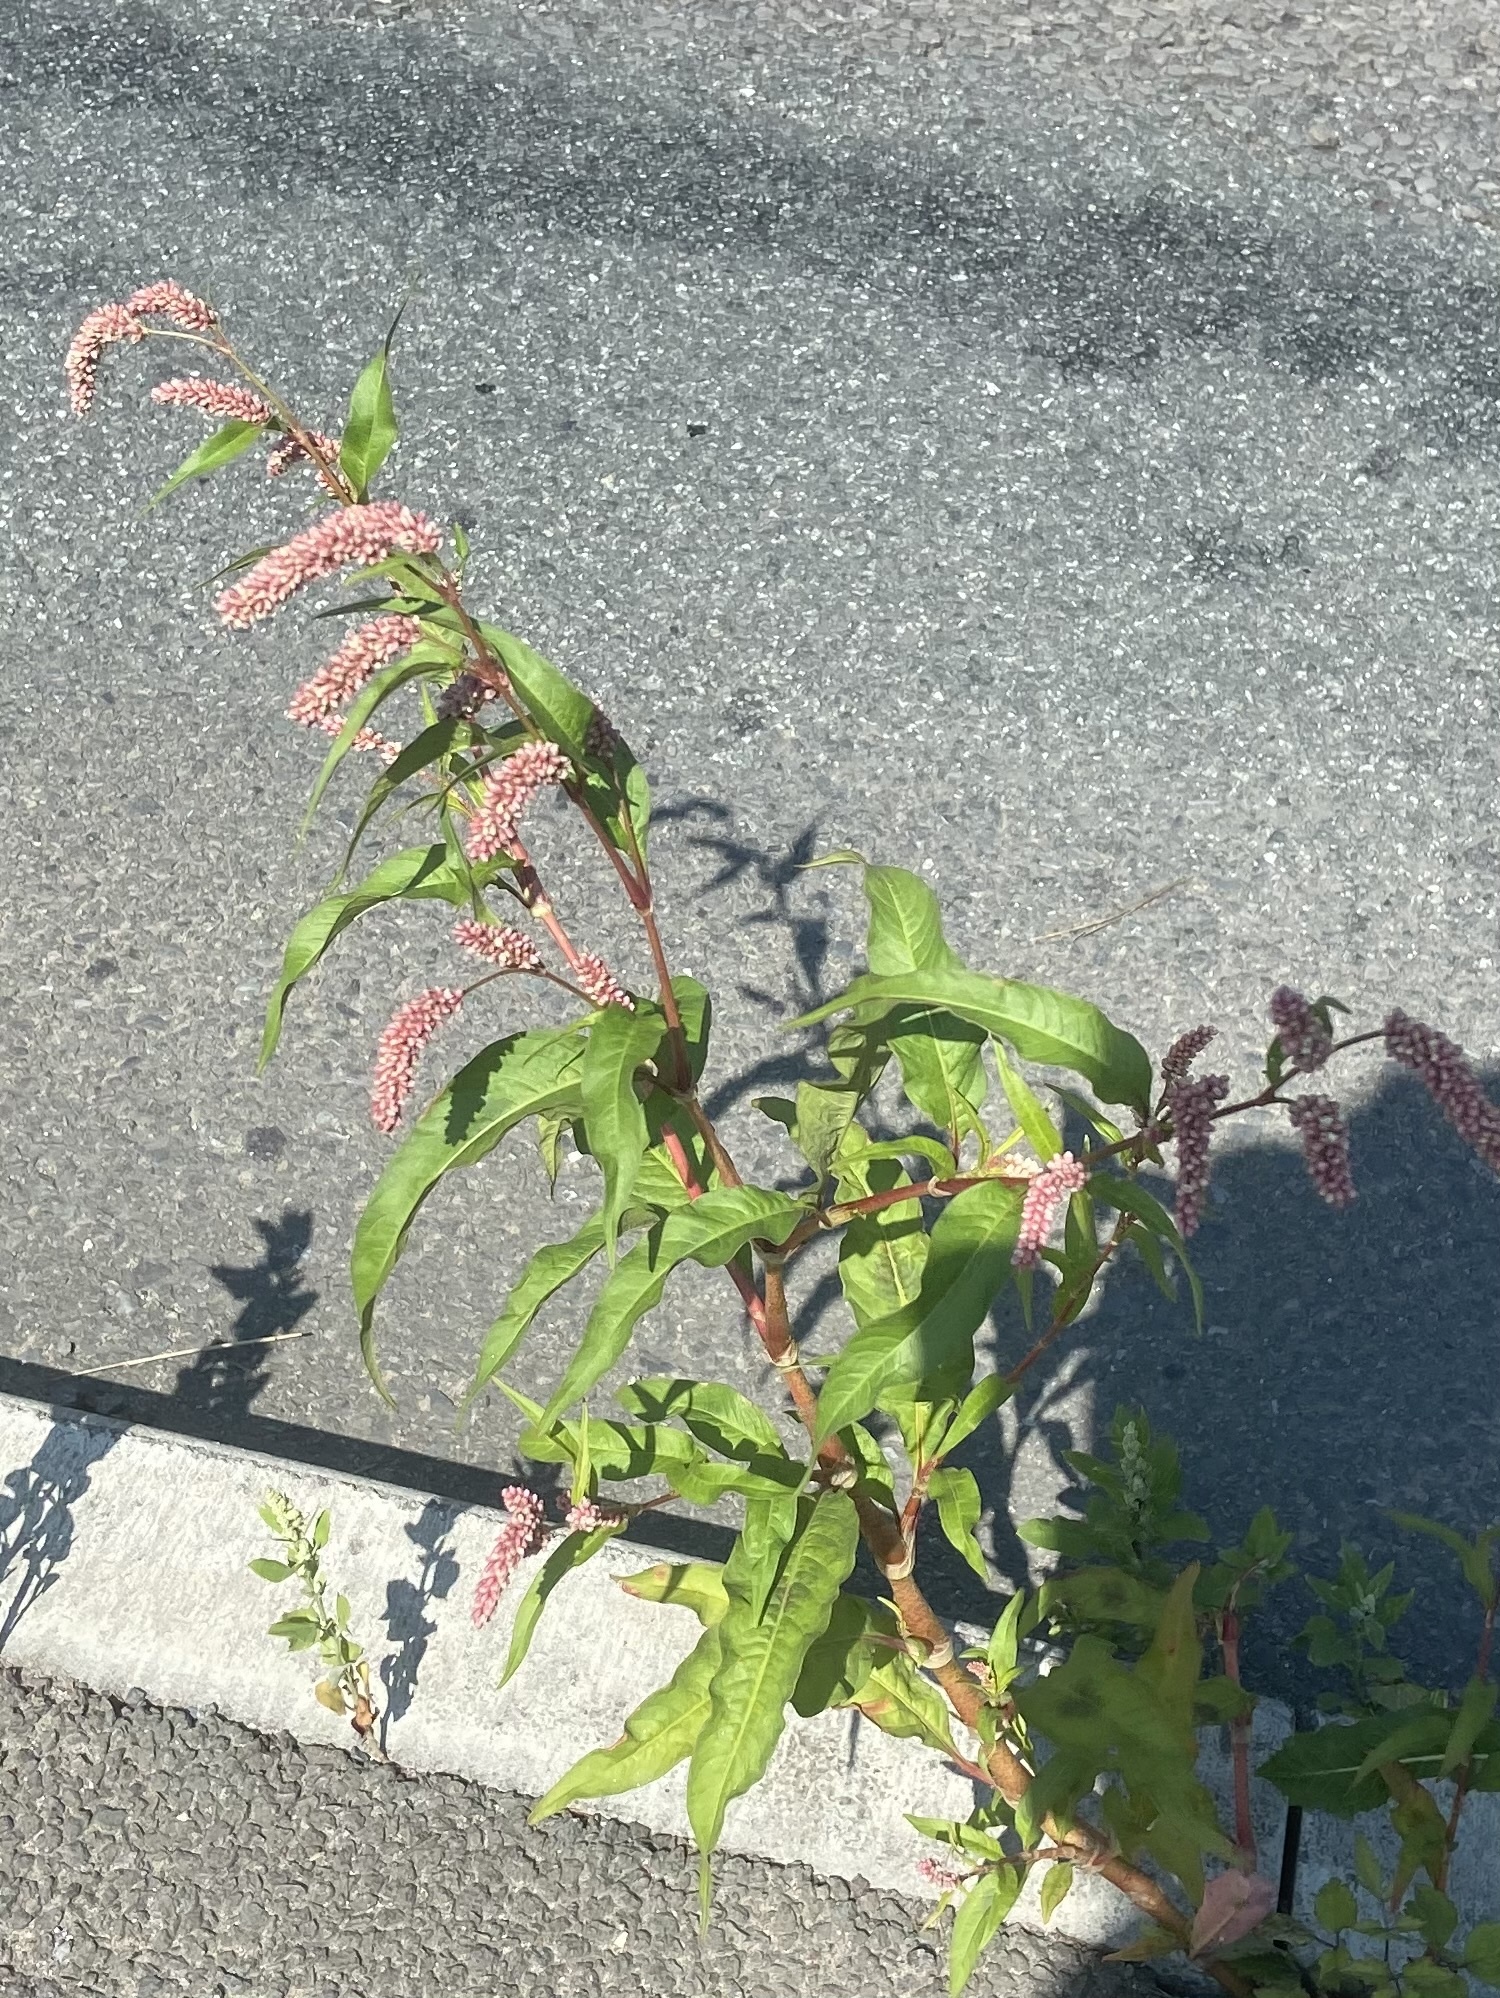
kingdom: Plantae
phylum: Tracheophyta
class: Magnoliopsida
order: Caryophyllales
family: Polygonaceae
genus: Persicaria
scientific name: Persicaria lapathifolia
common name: Curlytop knotweed
